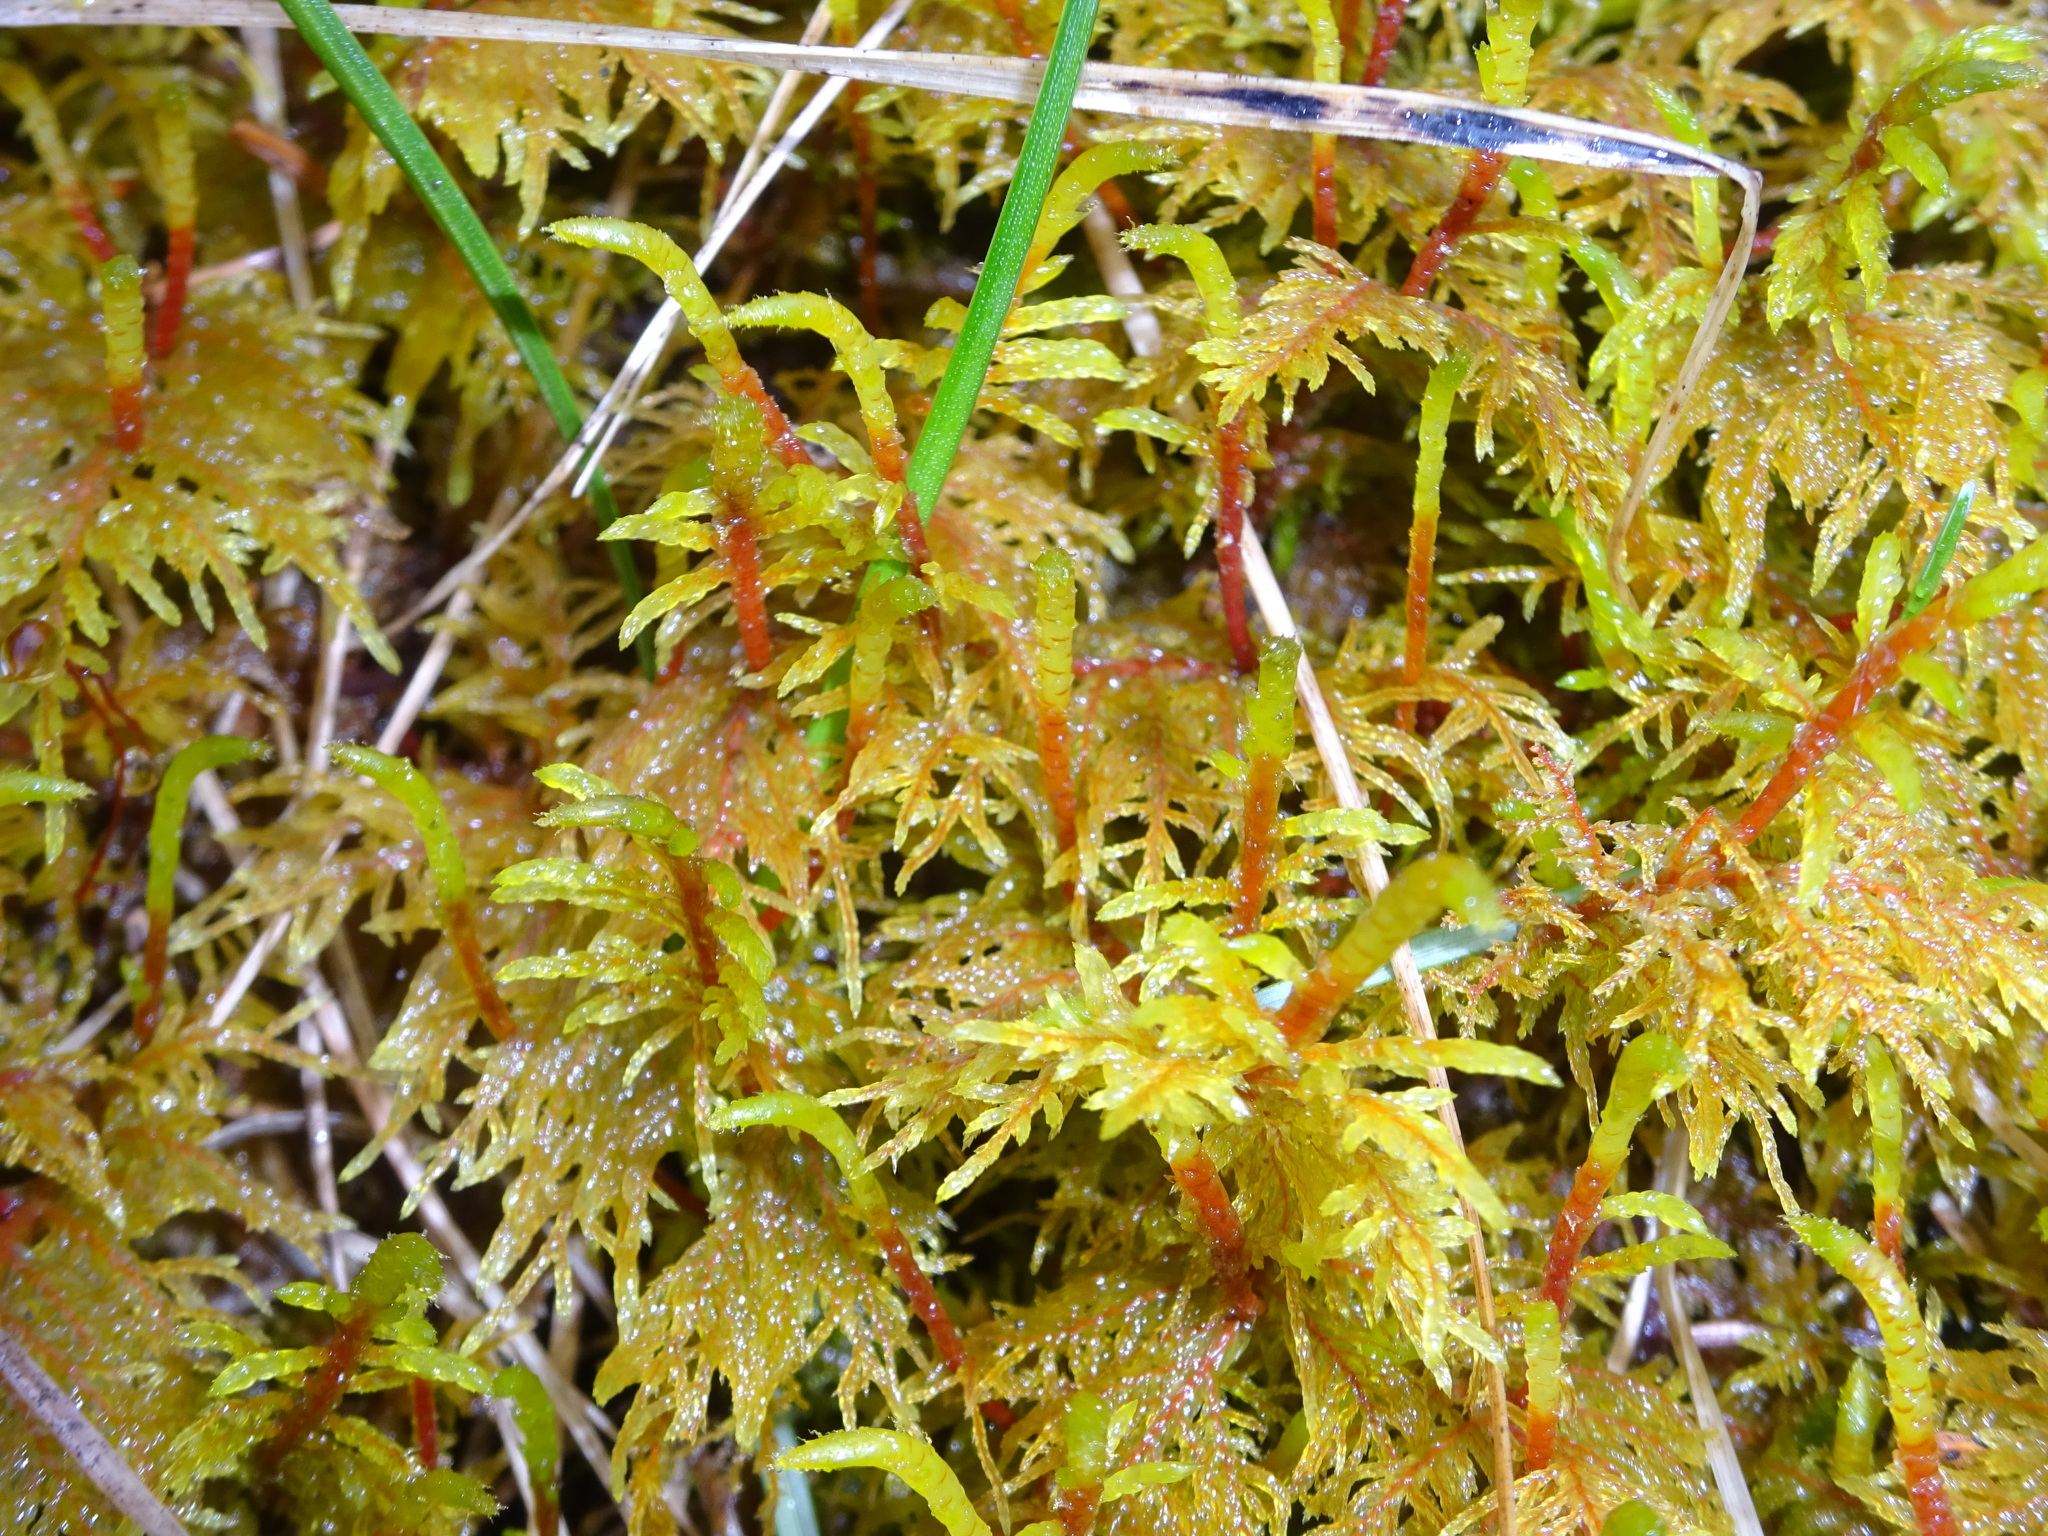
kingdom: Plantae
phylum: Bryophyta
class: Bryopsida
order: Hypnales
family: Hylocomiaceae
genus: Hylocomium
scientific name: Hylocomium splendens
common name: Stairstep moss
